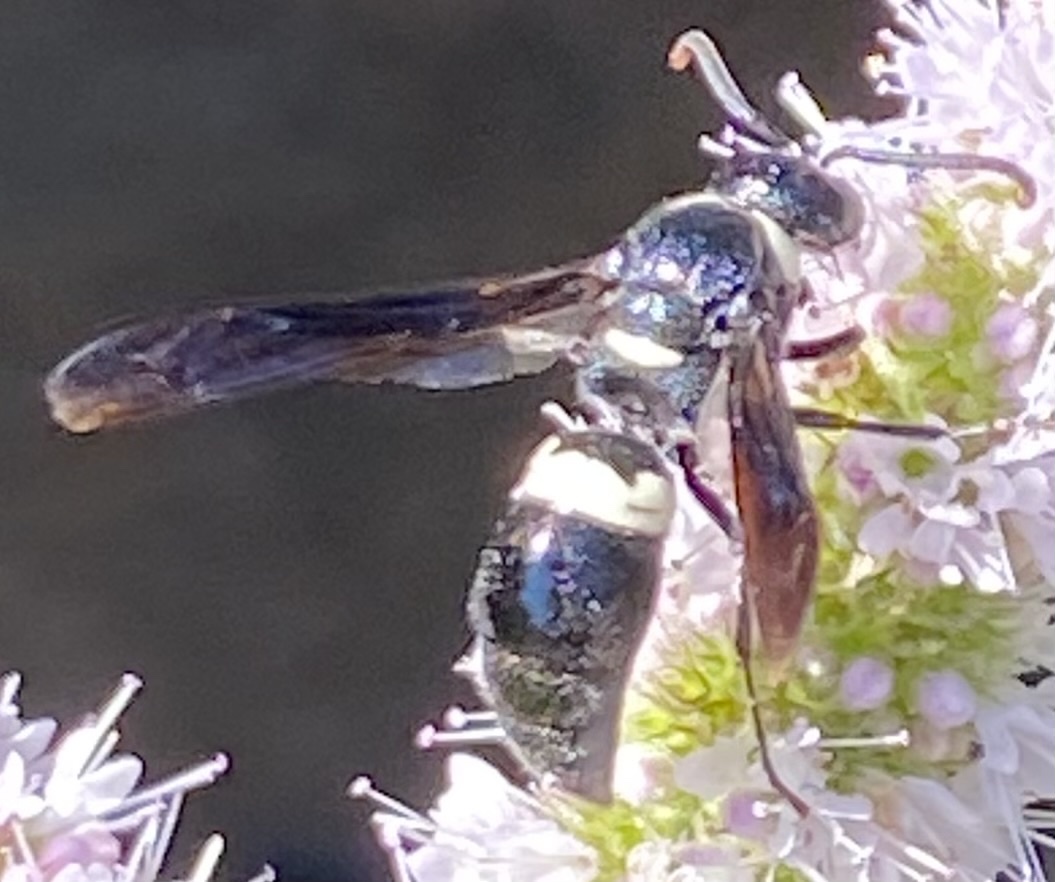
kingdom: Animalia
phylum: Arthropoda
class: Insecta
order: Hymenoptera
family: Eumenidae
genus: Monobia
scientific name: Monobia quadridens
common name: Four-toothed mason wasp
